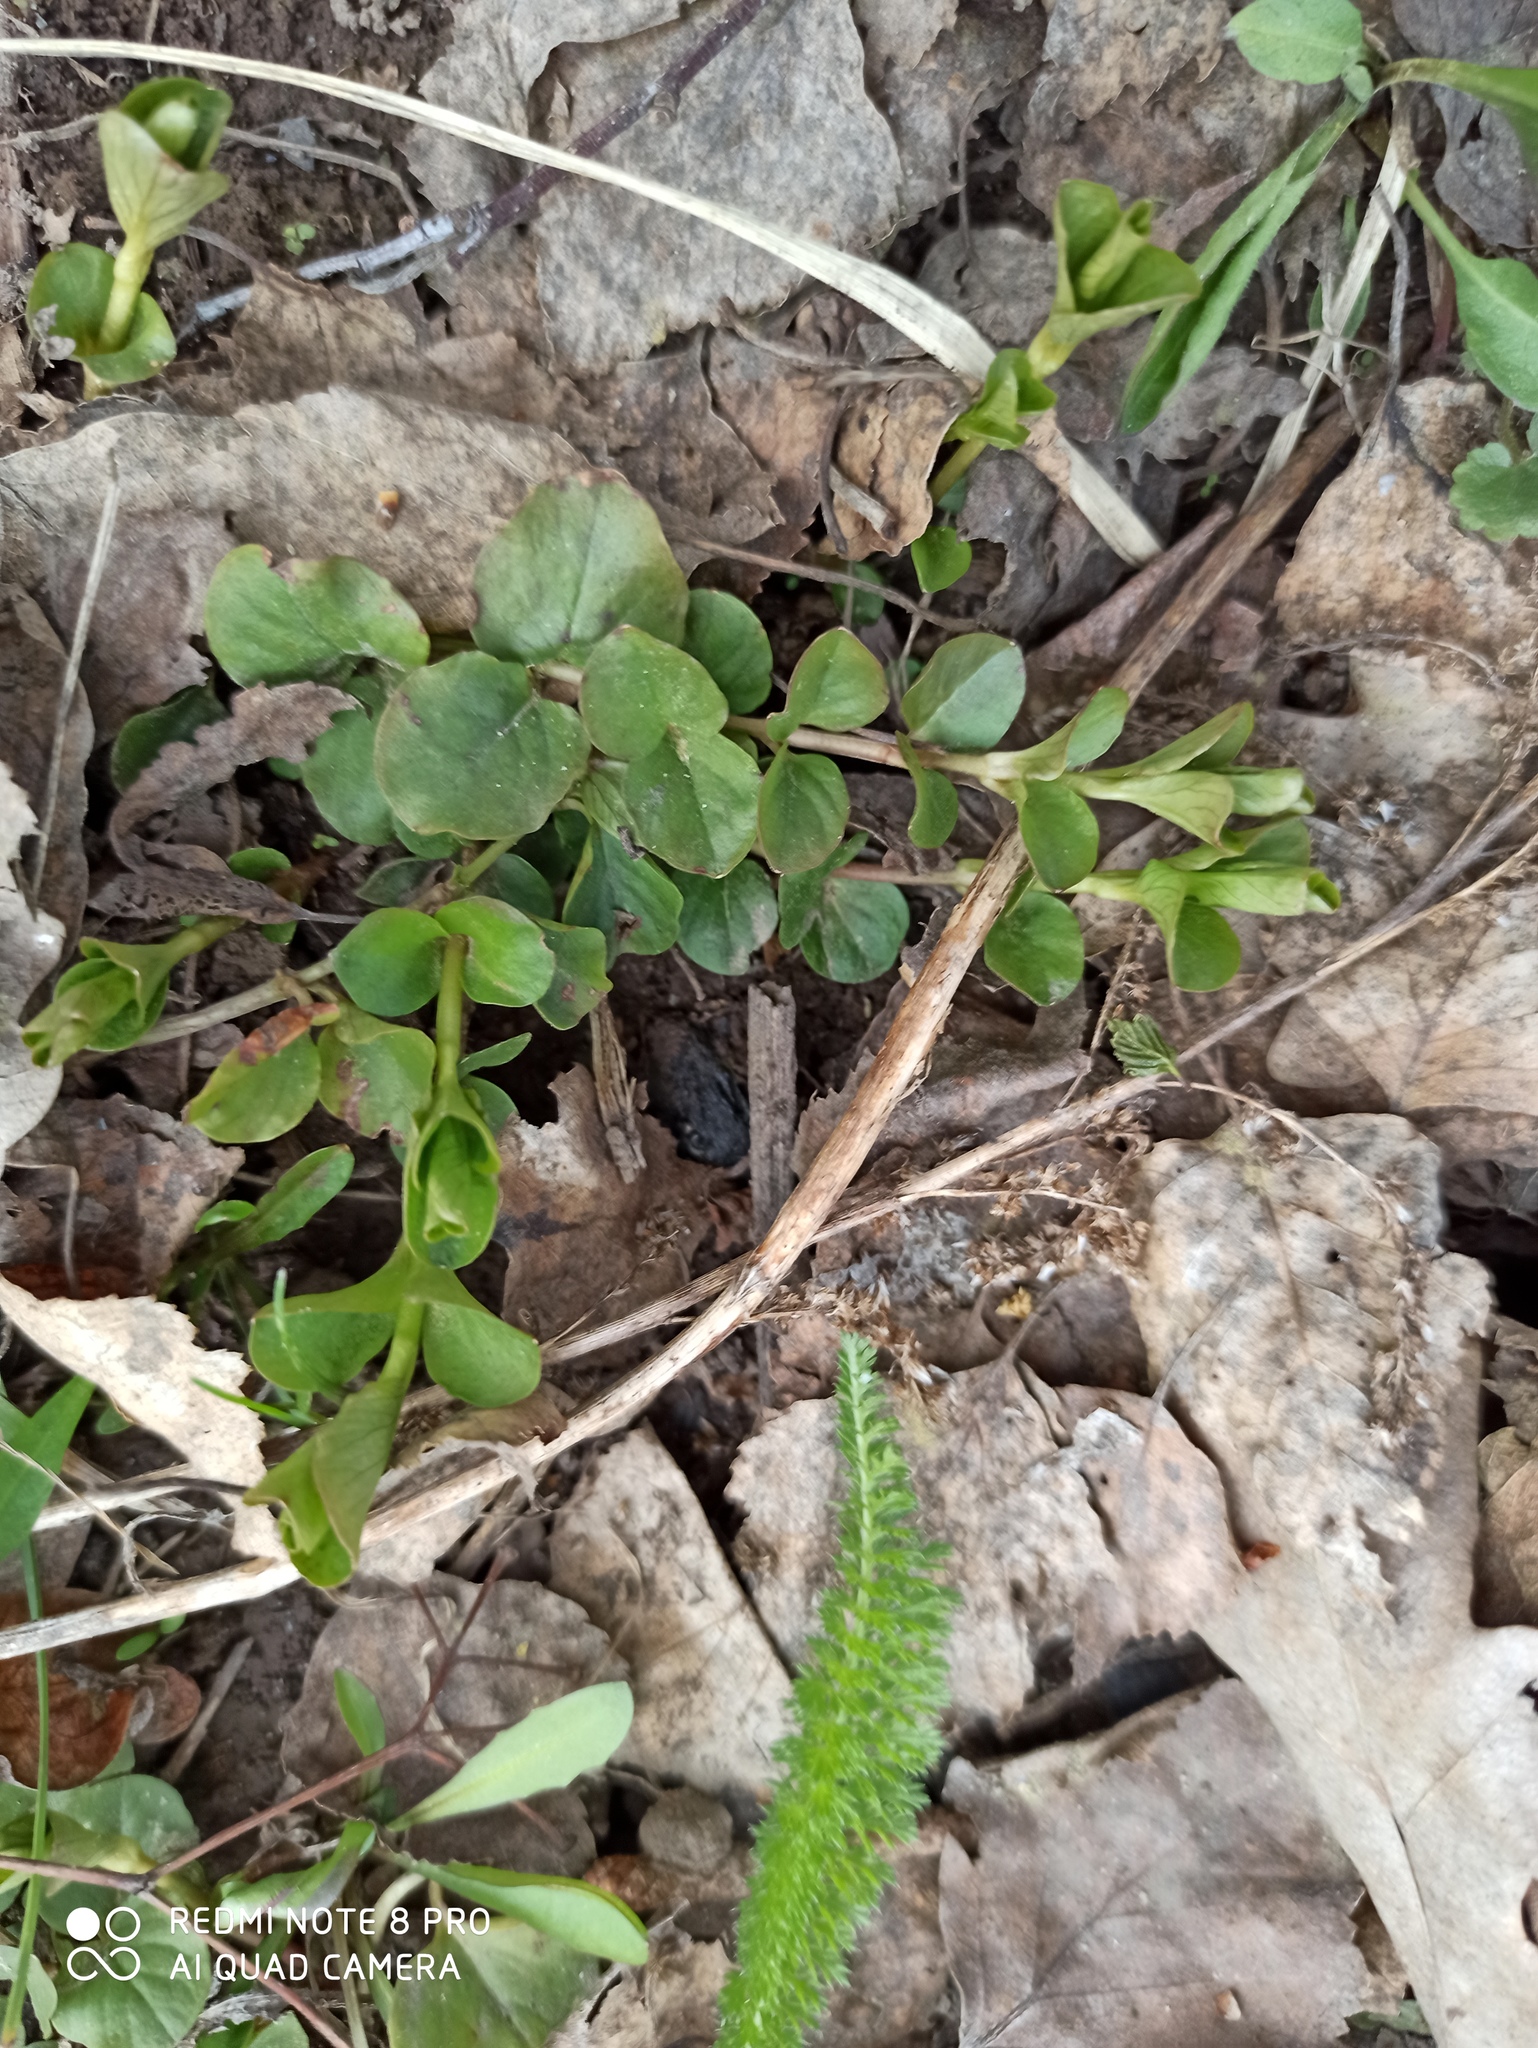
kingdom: Plantae
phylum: Tracheophyta
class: Magnoliopsida
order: Ericales
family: Primulaceae
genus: Lysimachia
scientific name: Lysimachia nummularia
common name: Moneywort
